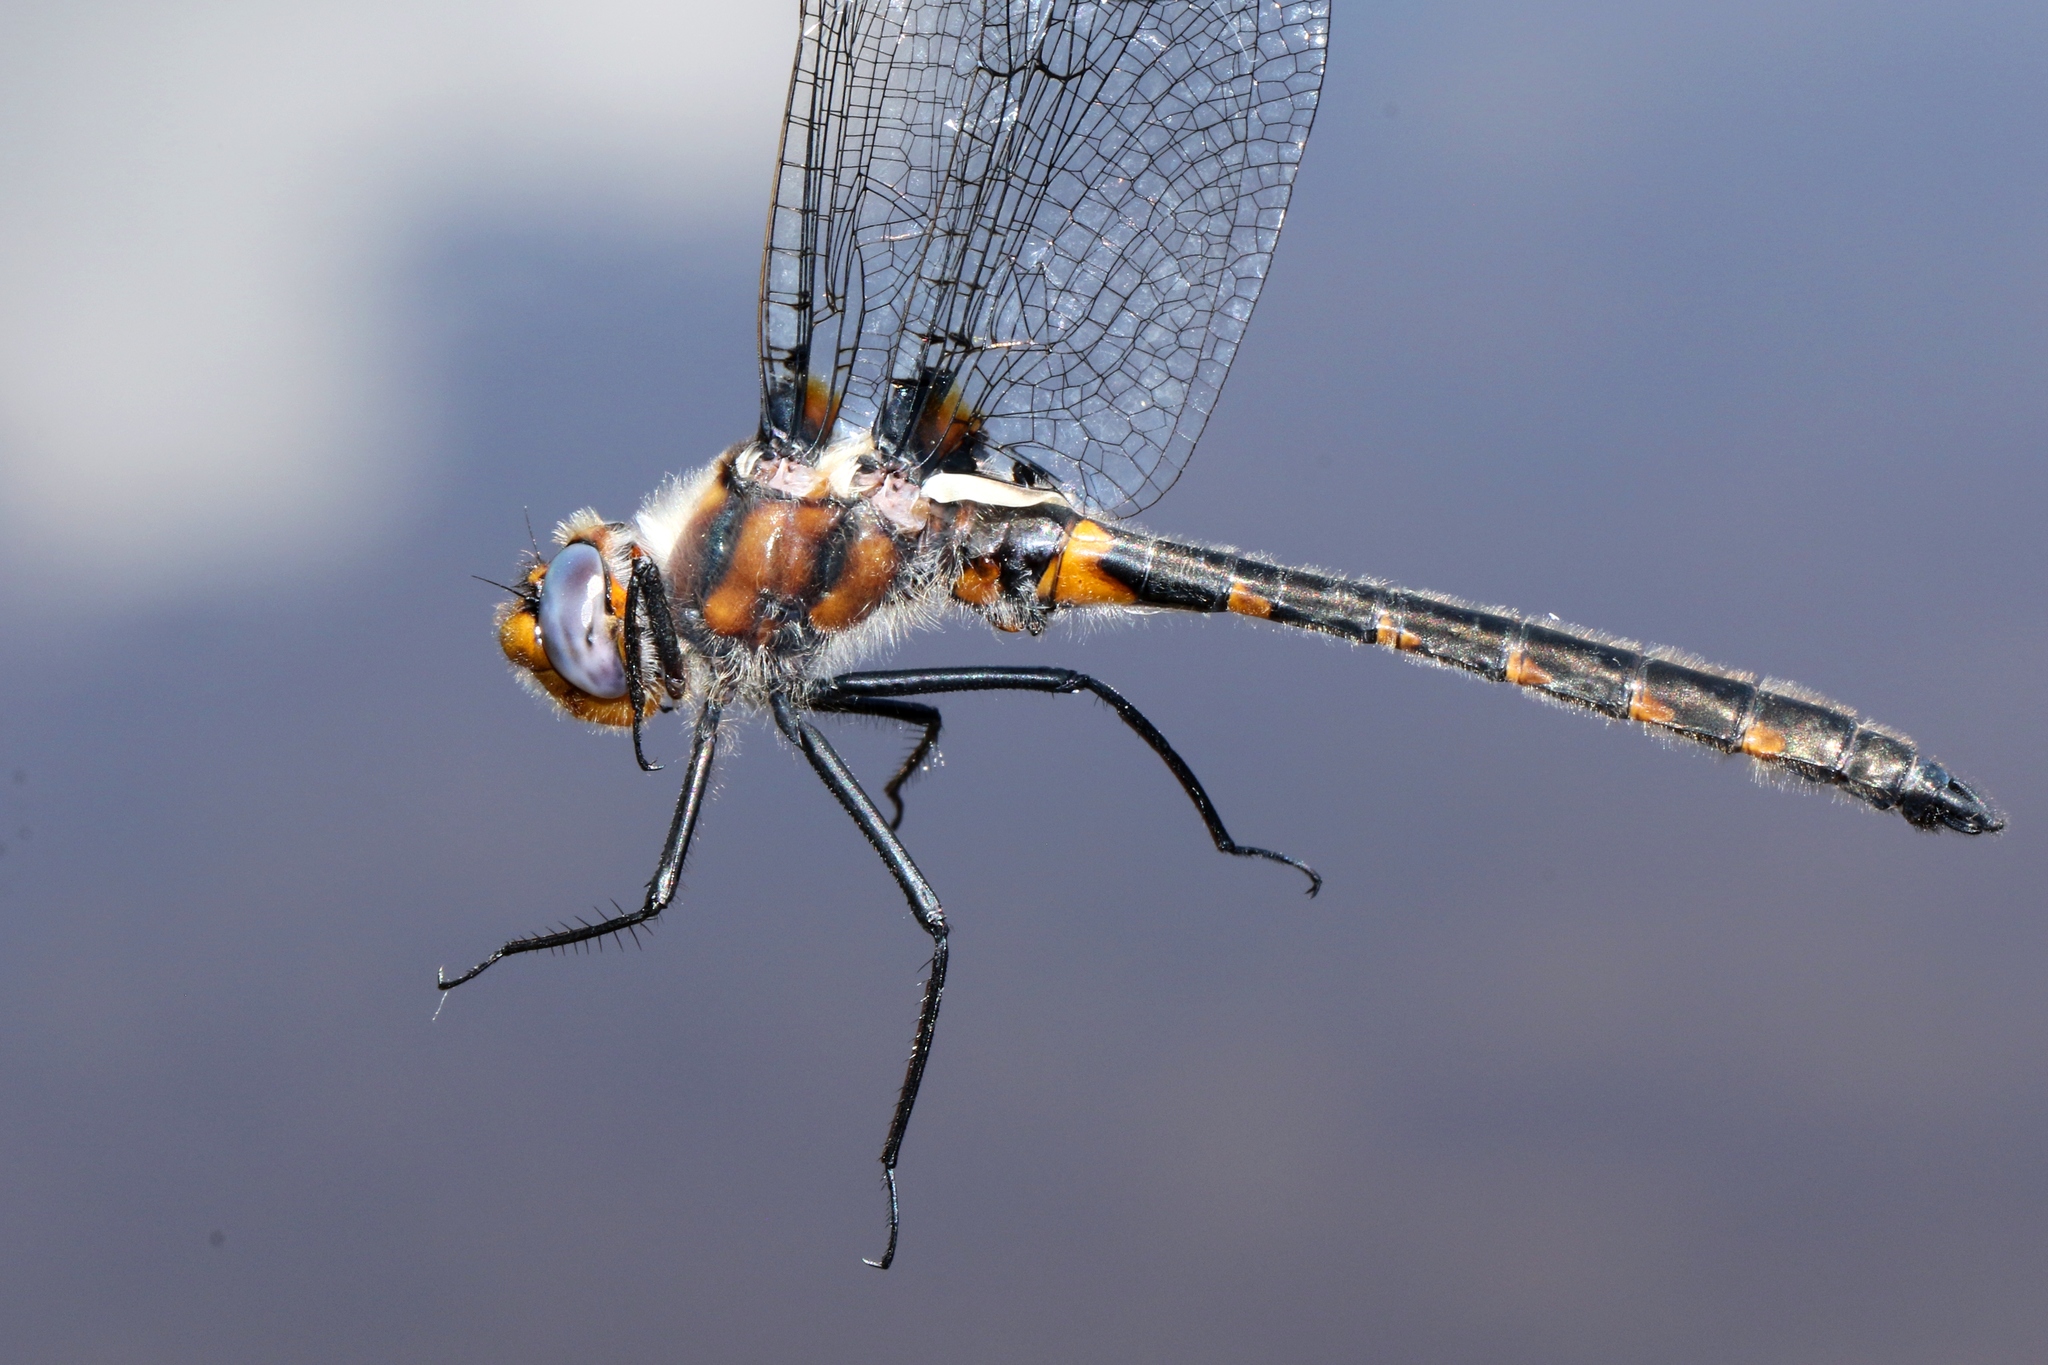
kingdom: Animalia
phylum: Arthropoda
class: Insecta
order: Odonata
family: Corduliidae
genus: Helocordulia
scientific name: Helocordulia uhleri
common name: Uhler's sundragon
